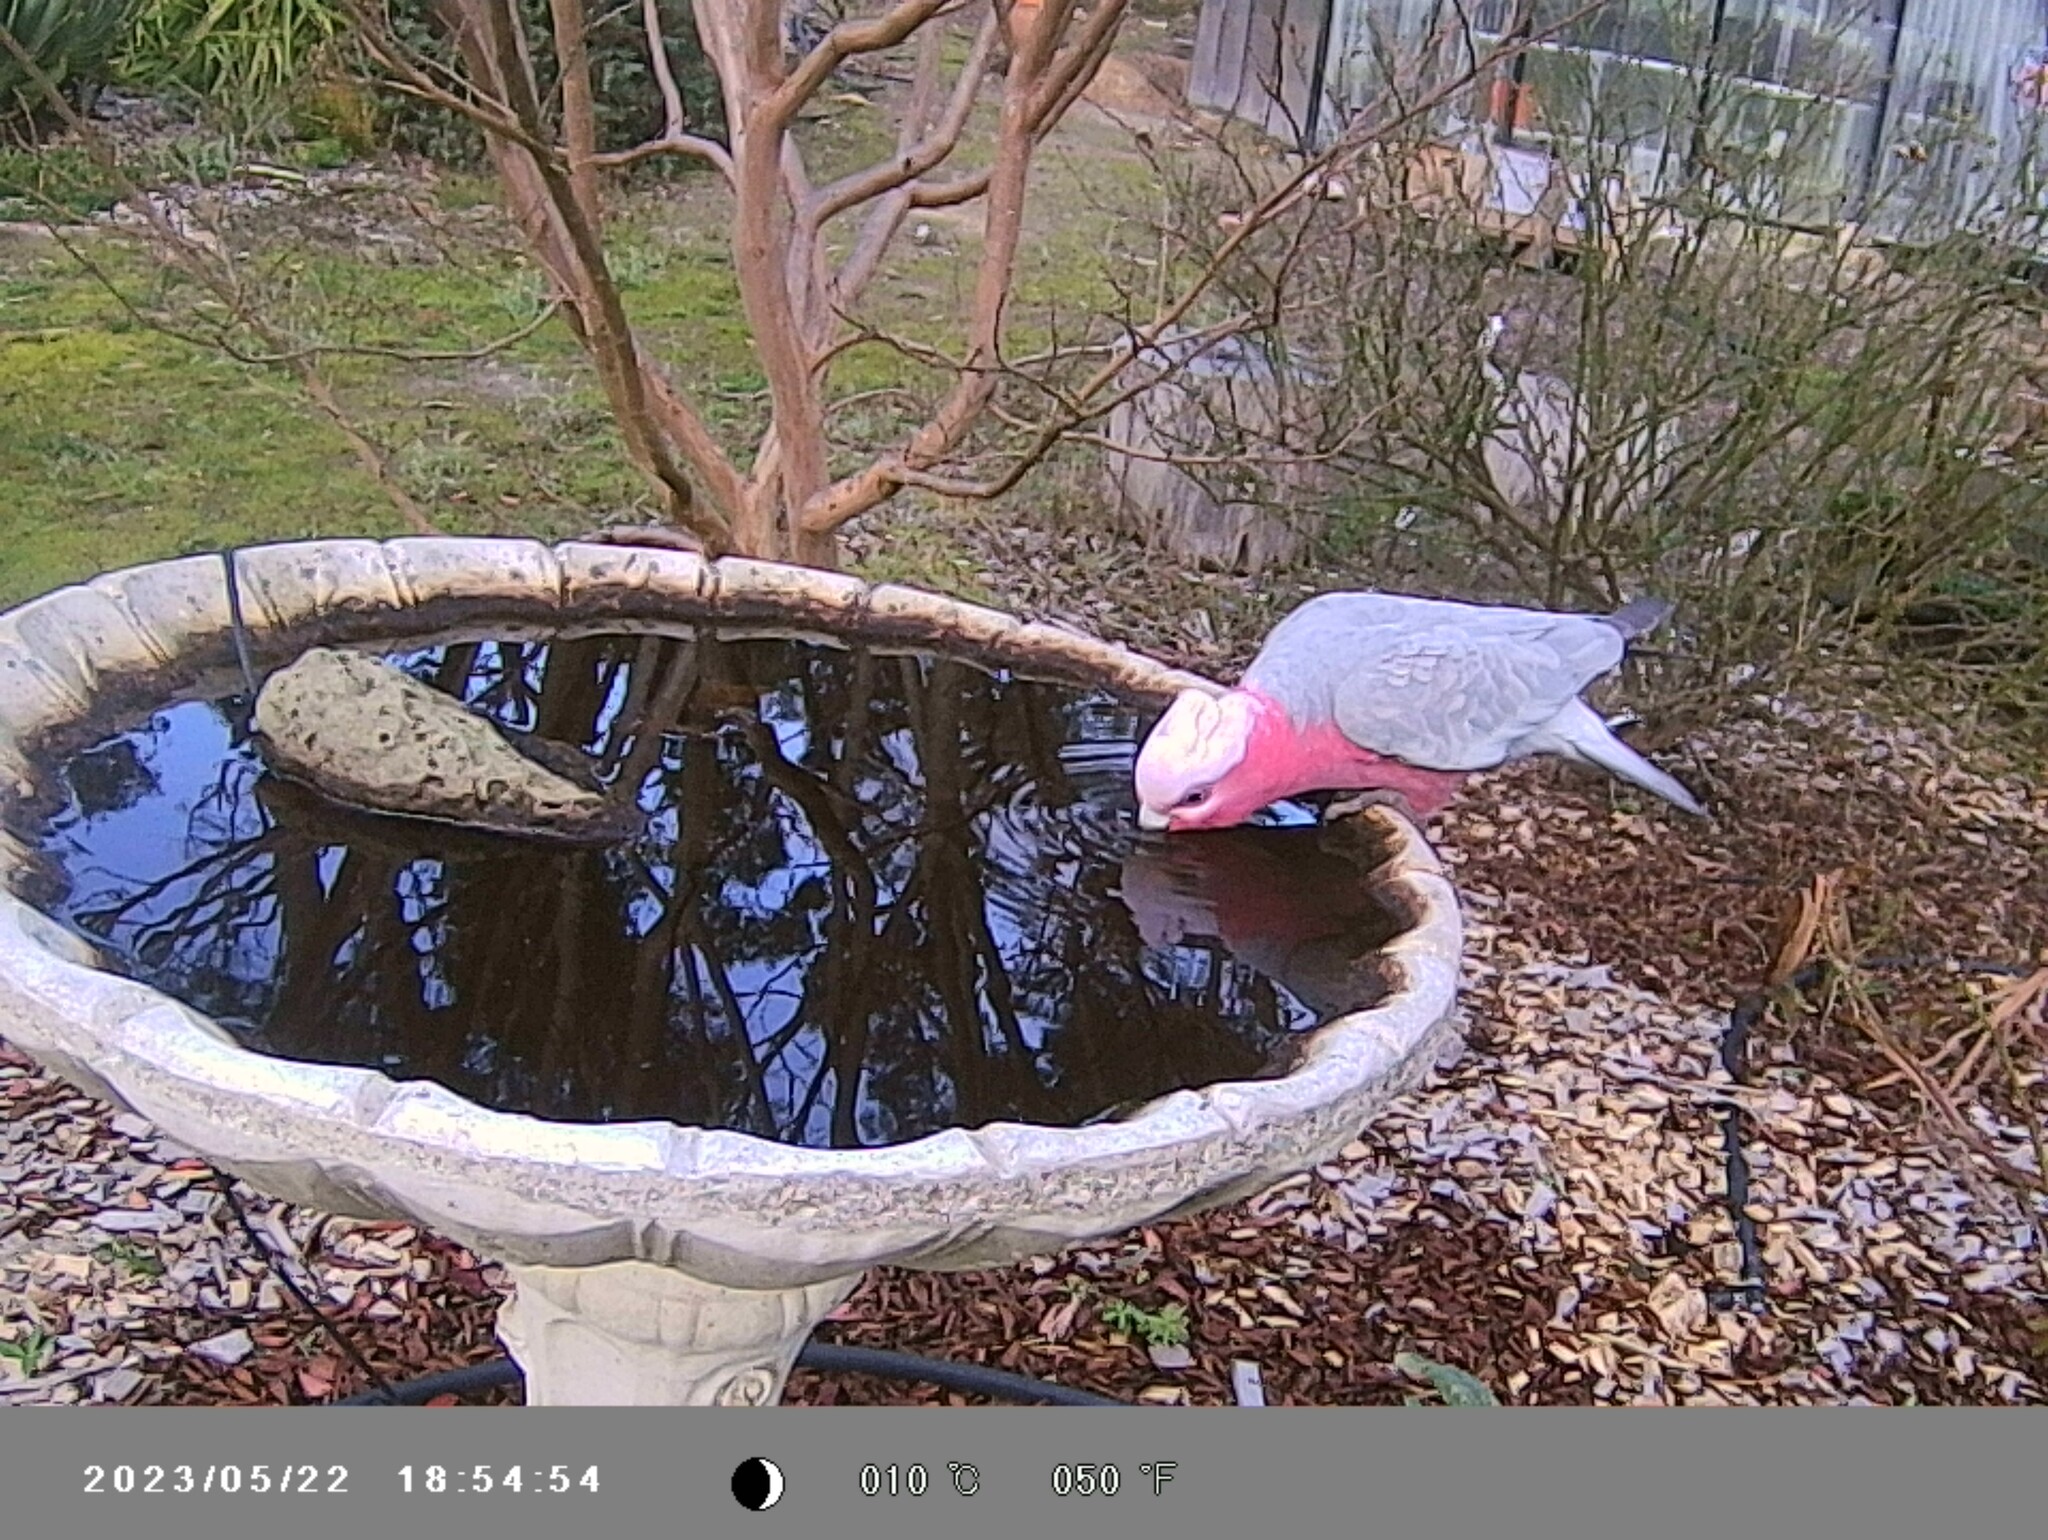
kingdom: Animalia
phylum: Chordata
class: Aves
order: Psittaciformes
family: Psittacidae
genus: Eolophus
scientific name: Eolophus roseicapilla
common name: Galah
